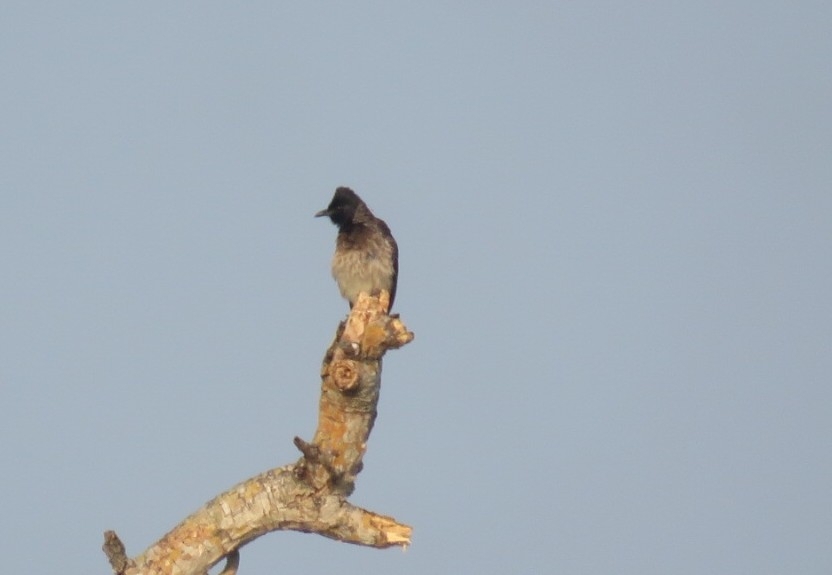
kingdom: Animalia
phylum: Chordata
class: Aves
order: Passeriformes
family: Pycnonotidae
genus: Pycnonotus
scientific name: Pycnonotus cafer
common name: Red-vented bulbul
